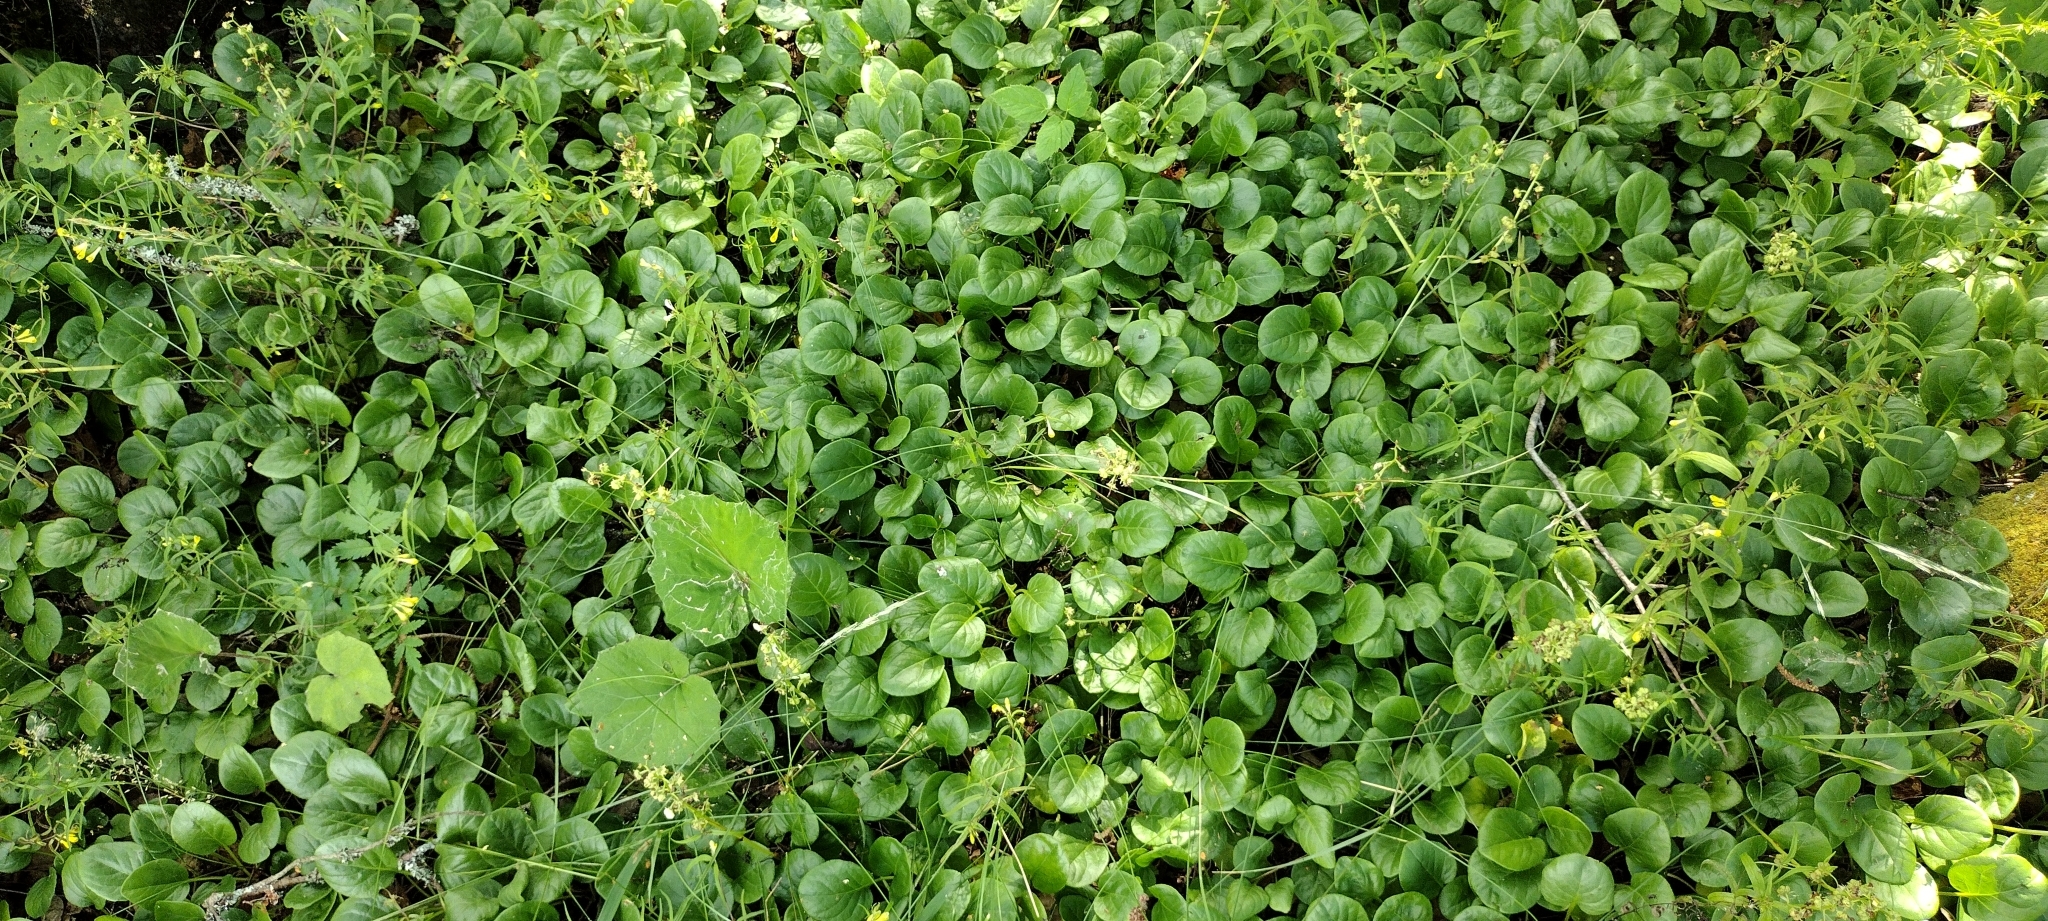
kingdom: Plantae
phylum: Tracheophyta
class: Magnoliopsida
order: Ericales
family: Ericaceae
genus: Pyrola
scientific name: Pyrola rotundifolia
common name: Round-leaved wintergreen
